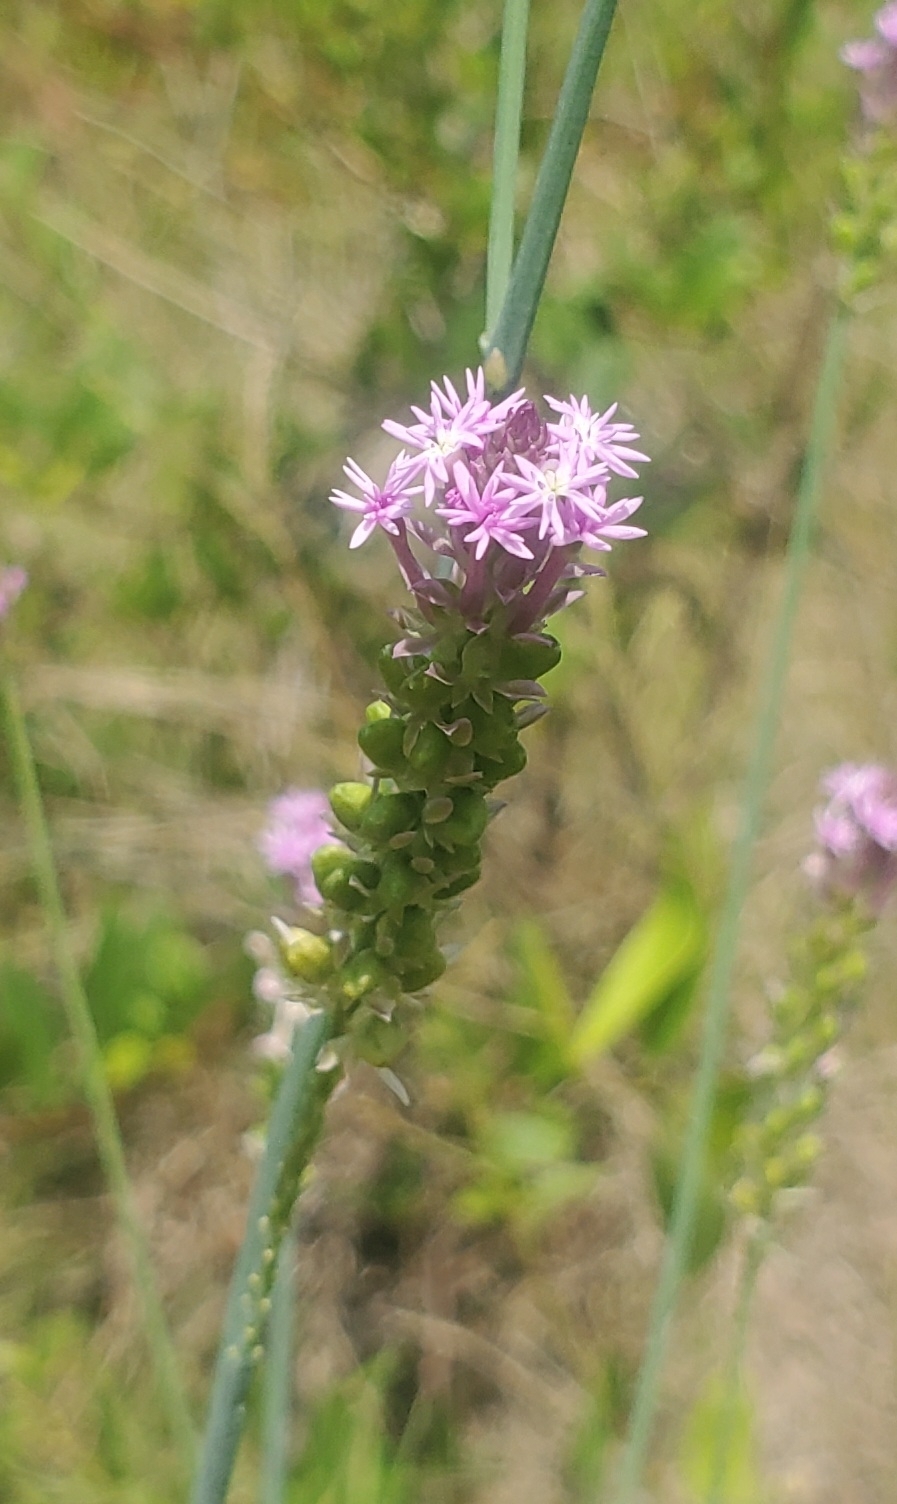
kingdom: Plantae
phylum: Tracheophyta
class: Magnoliopsida
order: Fabales
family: Polygalaceae
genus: Polygala
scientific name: Polygala incarnata
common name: Pink milkwort
